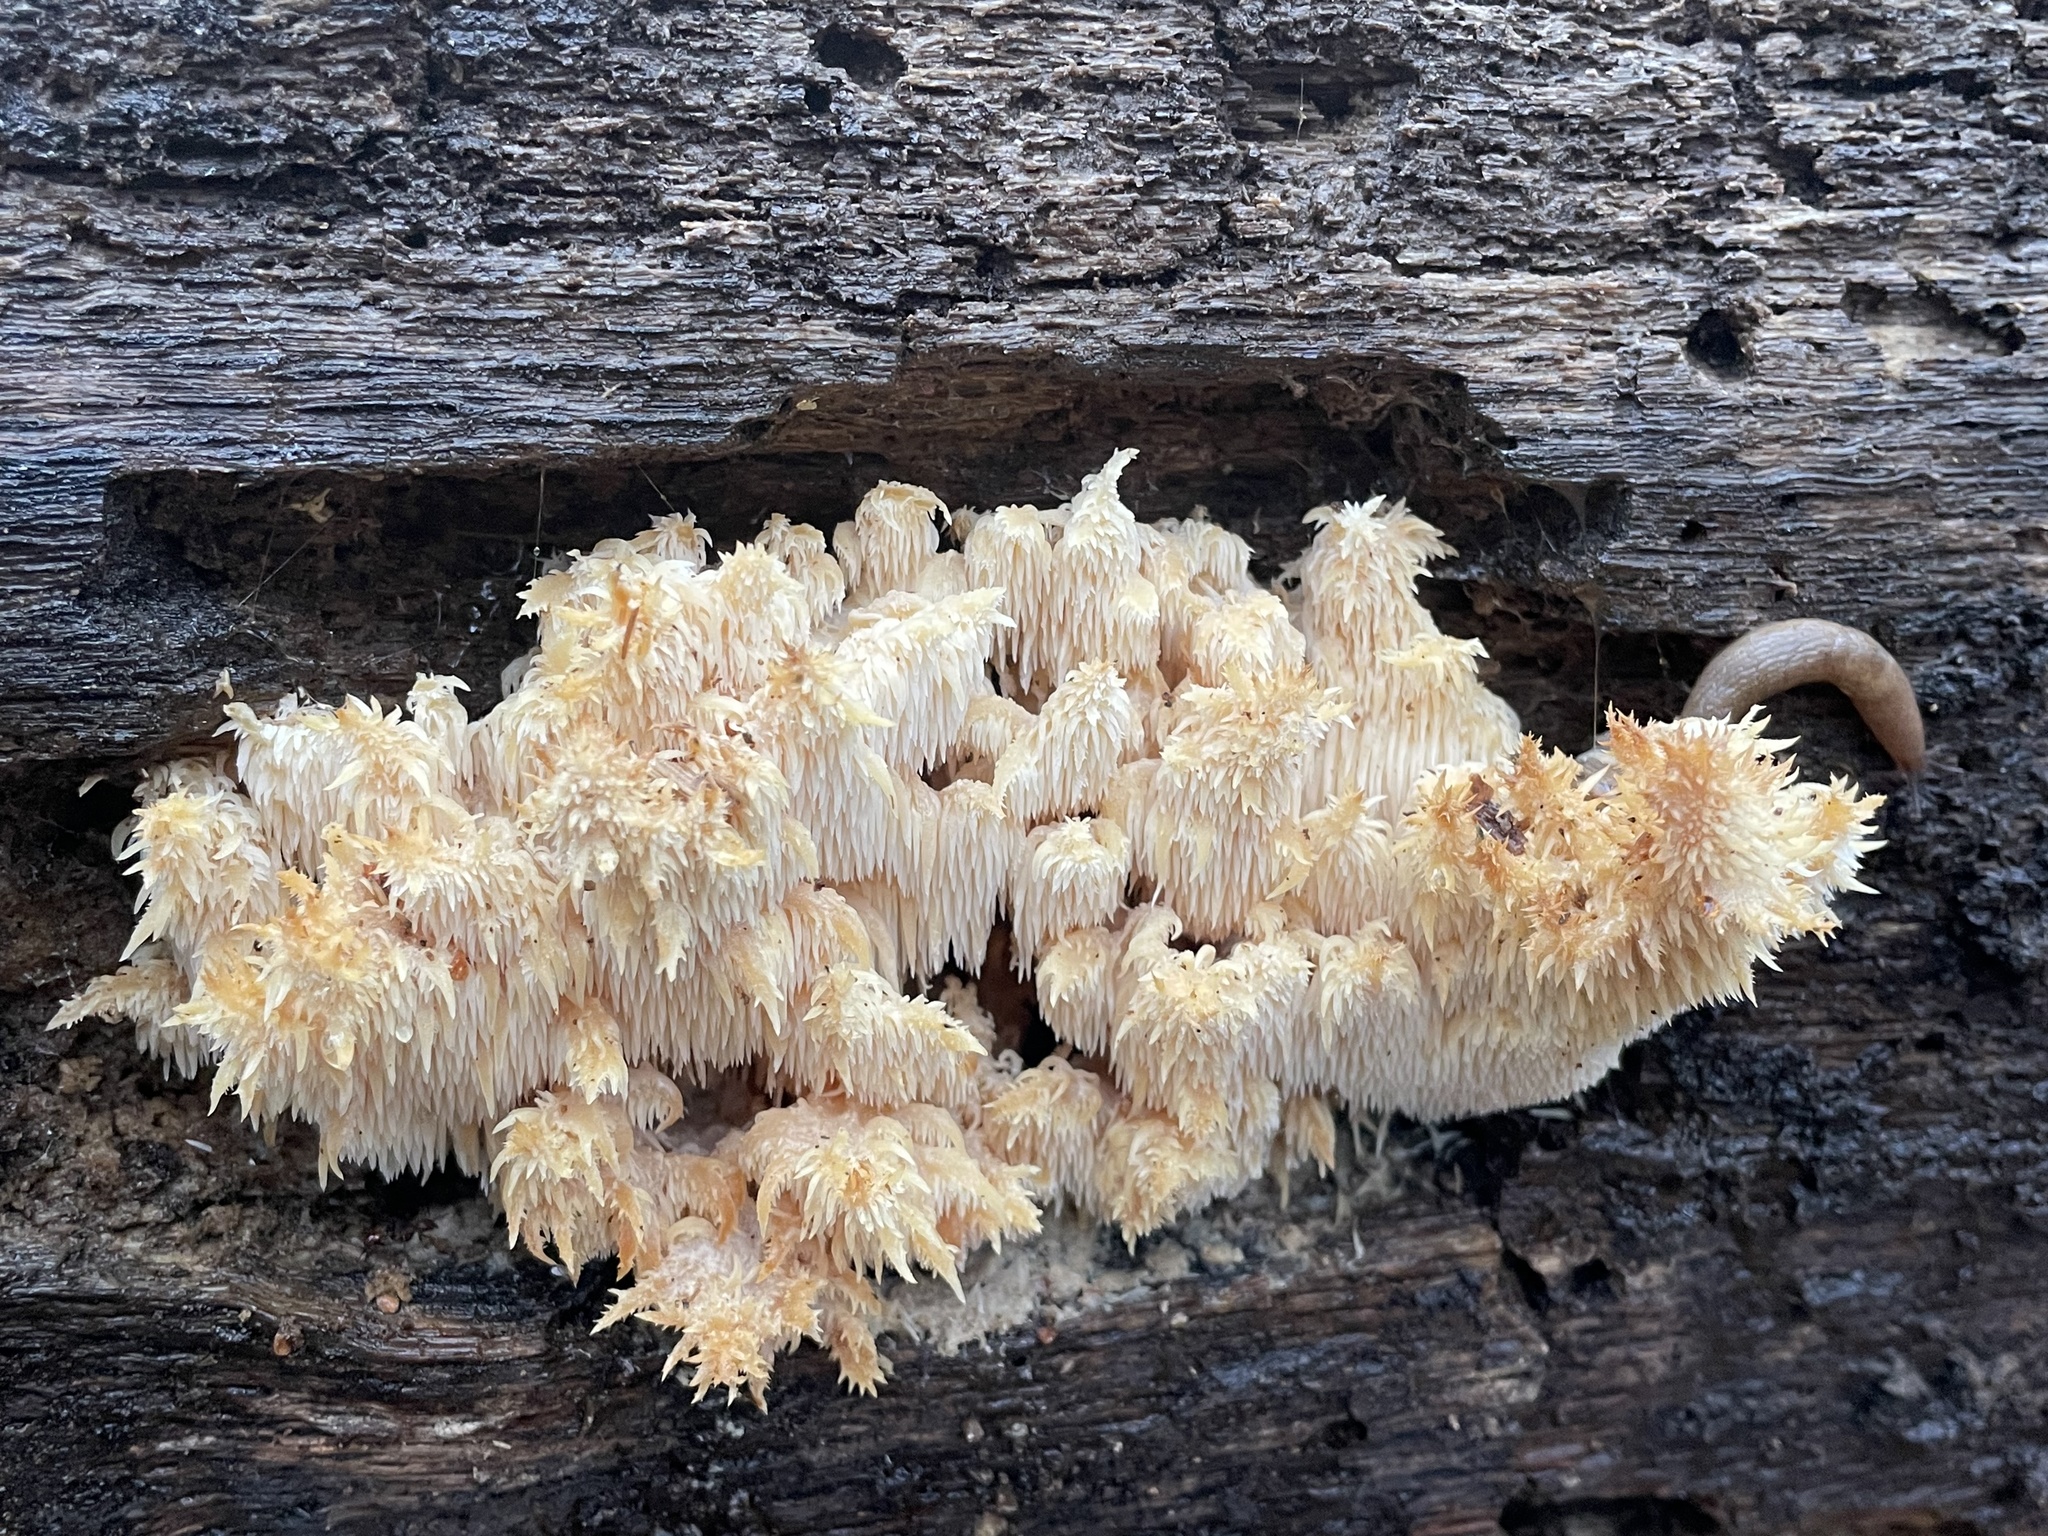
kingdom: Fungi
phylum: Basidiomycota
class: Agaricomycetes
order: Russulales
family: Hericiaceae
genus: Hericium
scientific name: Hericium coralloides
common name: Coral tooth
